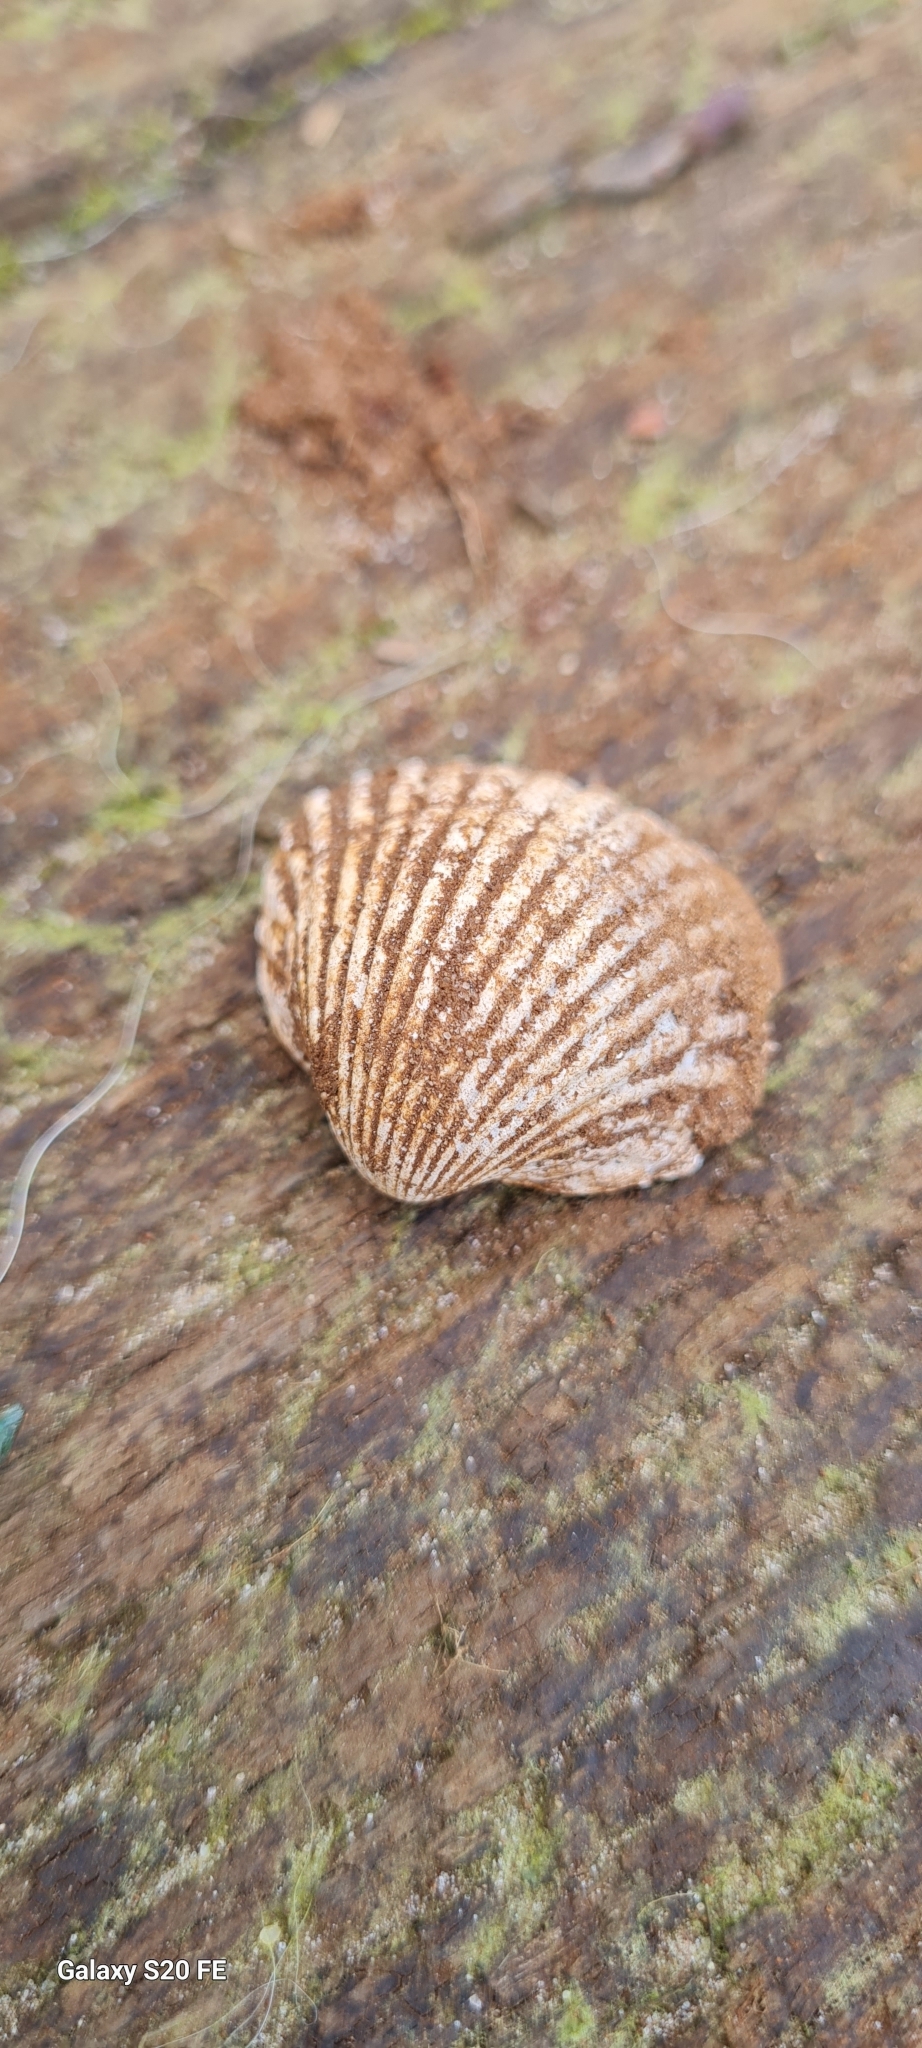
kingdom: Animalia
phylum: Mollusca
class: Bivalvia
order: Cardiida
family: Cardiidae
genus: Cerastoderma
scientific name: Cerastoderma glaucum
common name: Lagoon cockle
